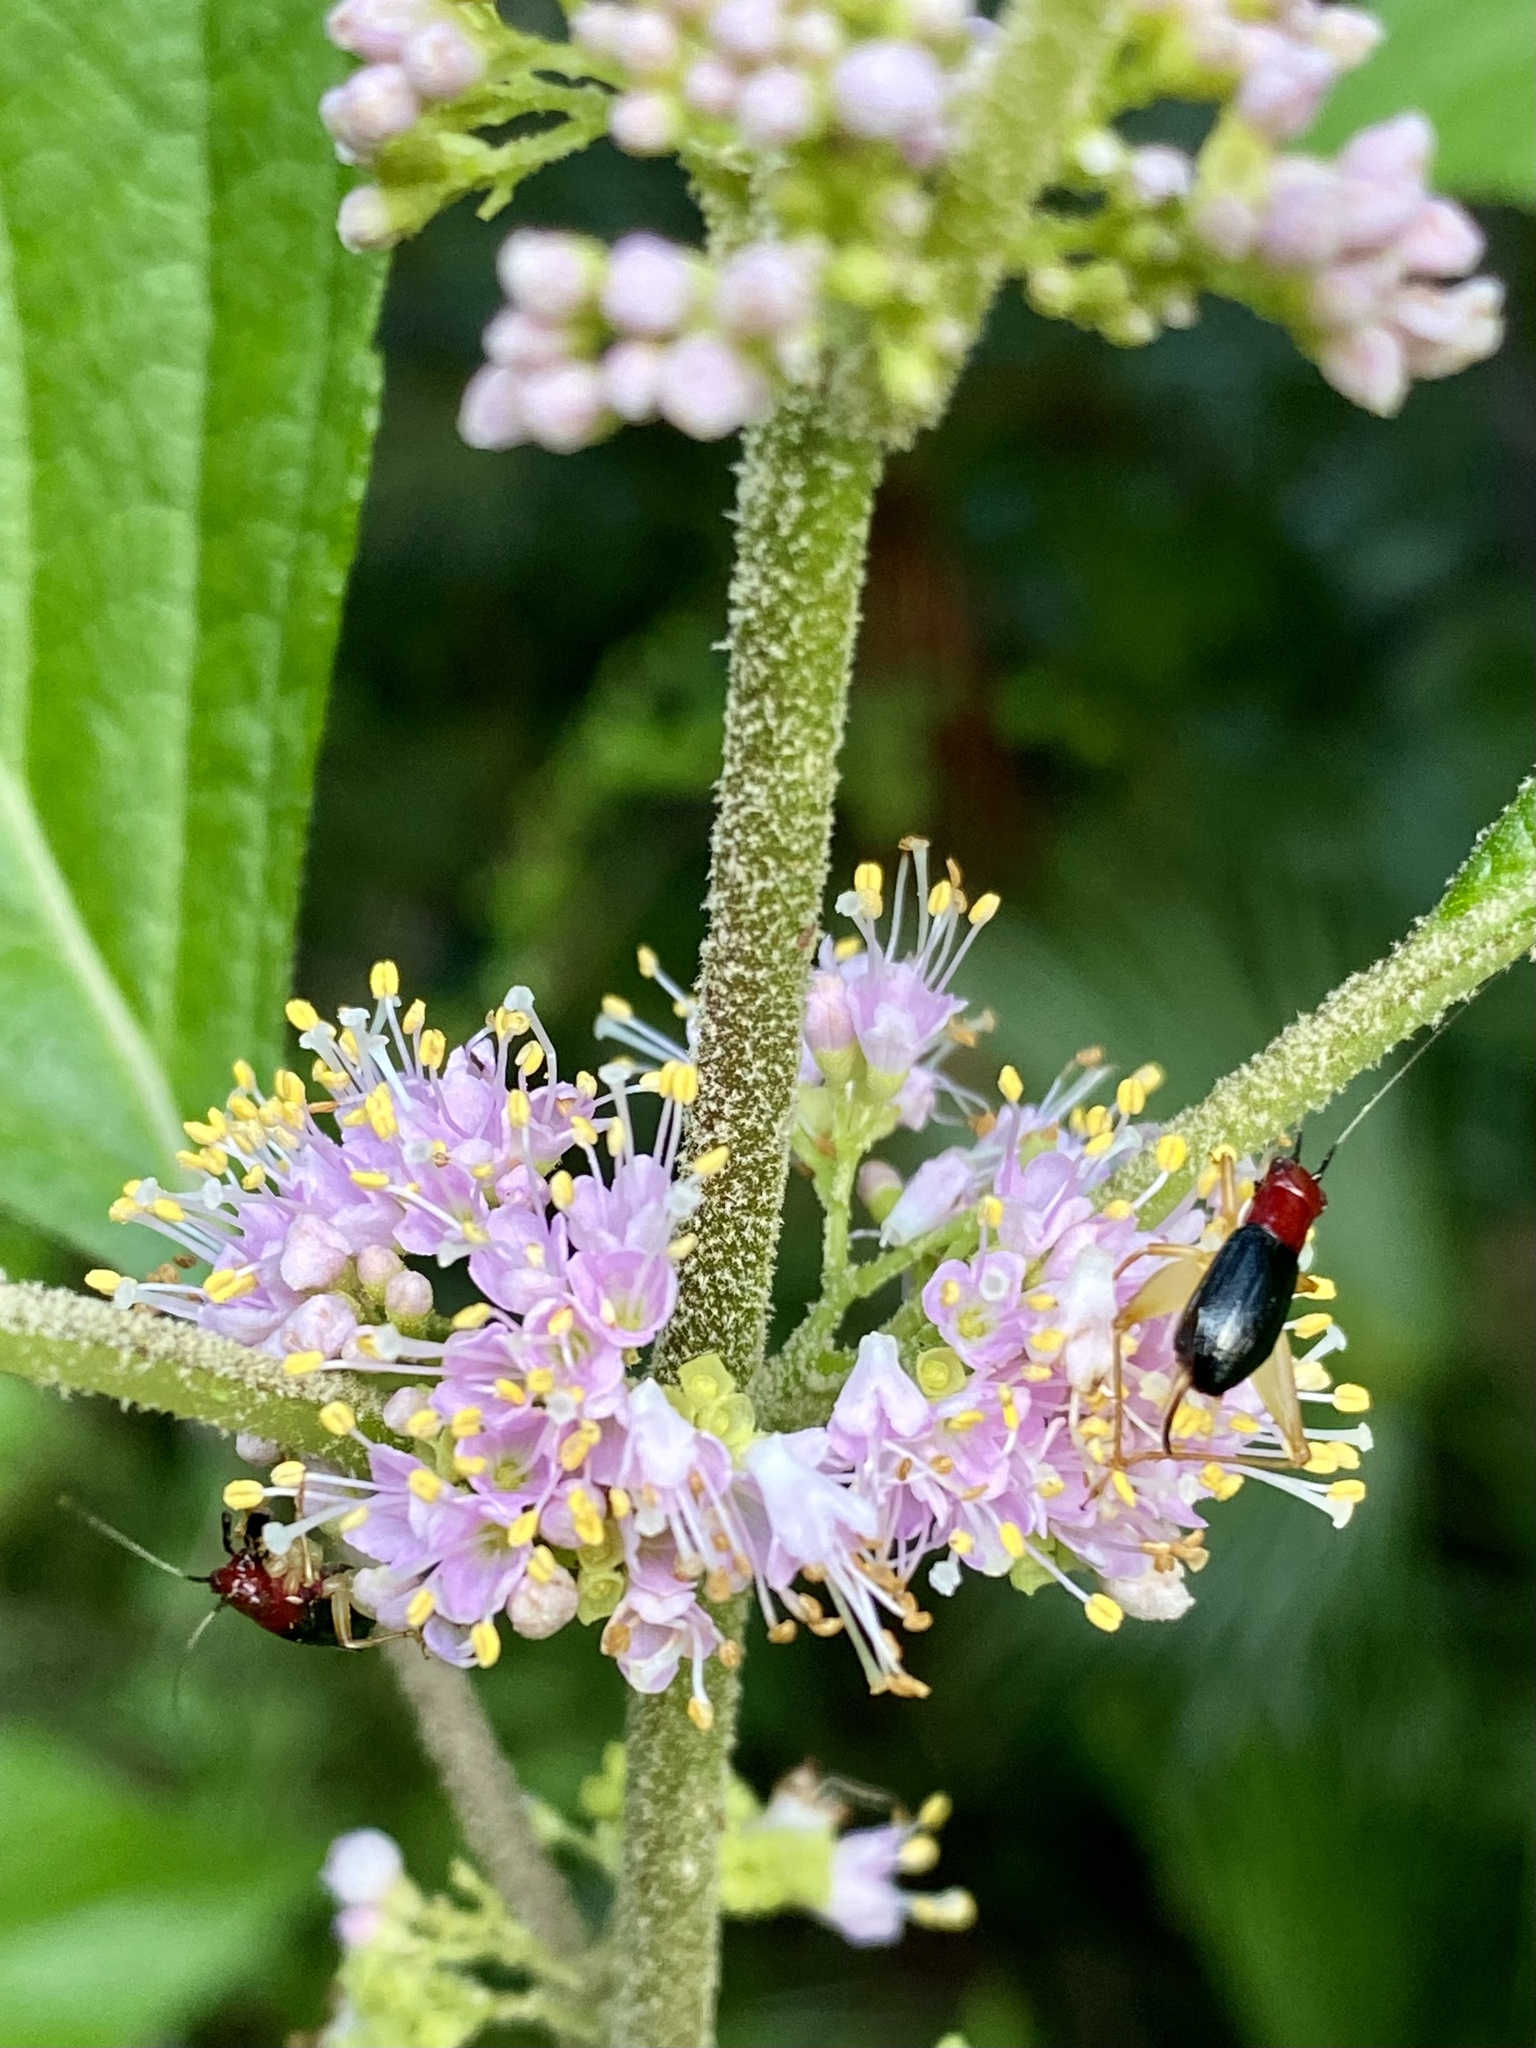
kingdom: Animalia
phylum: Arthropoda
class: Insecta
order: Orthoptera
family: Trigonidiidae
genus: Phyllopalpus
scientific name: Phyllopalpus pulchellus
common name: Handsome trig
